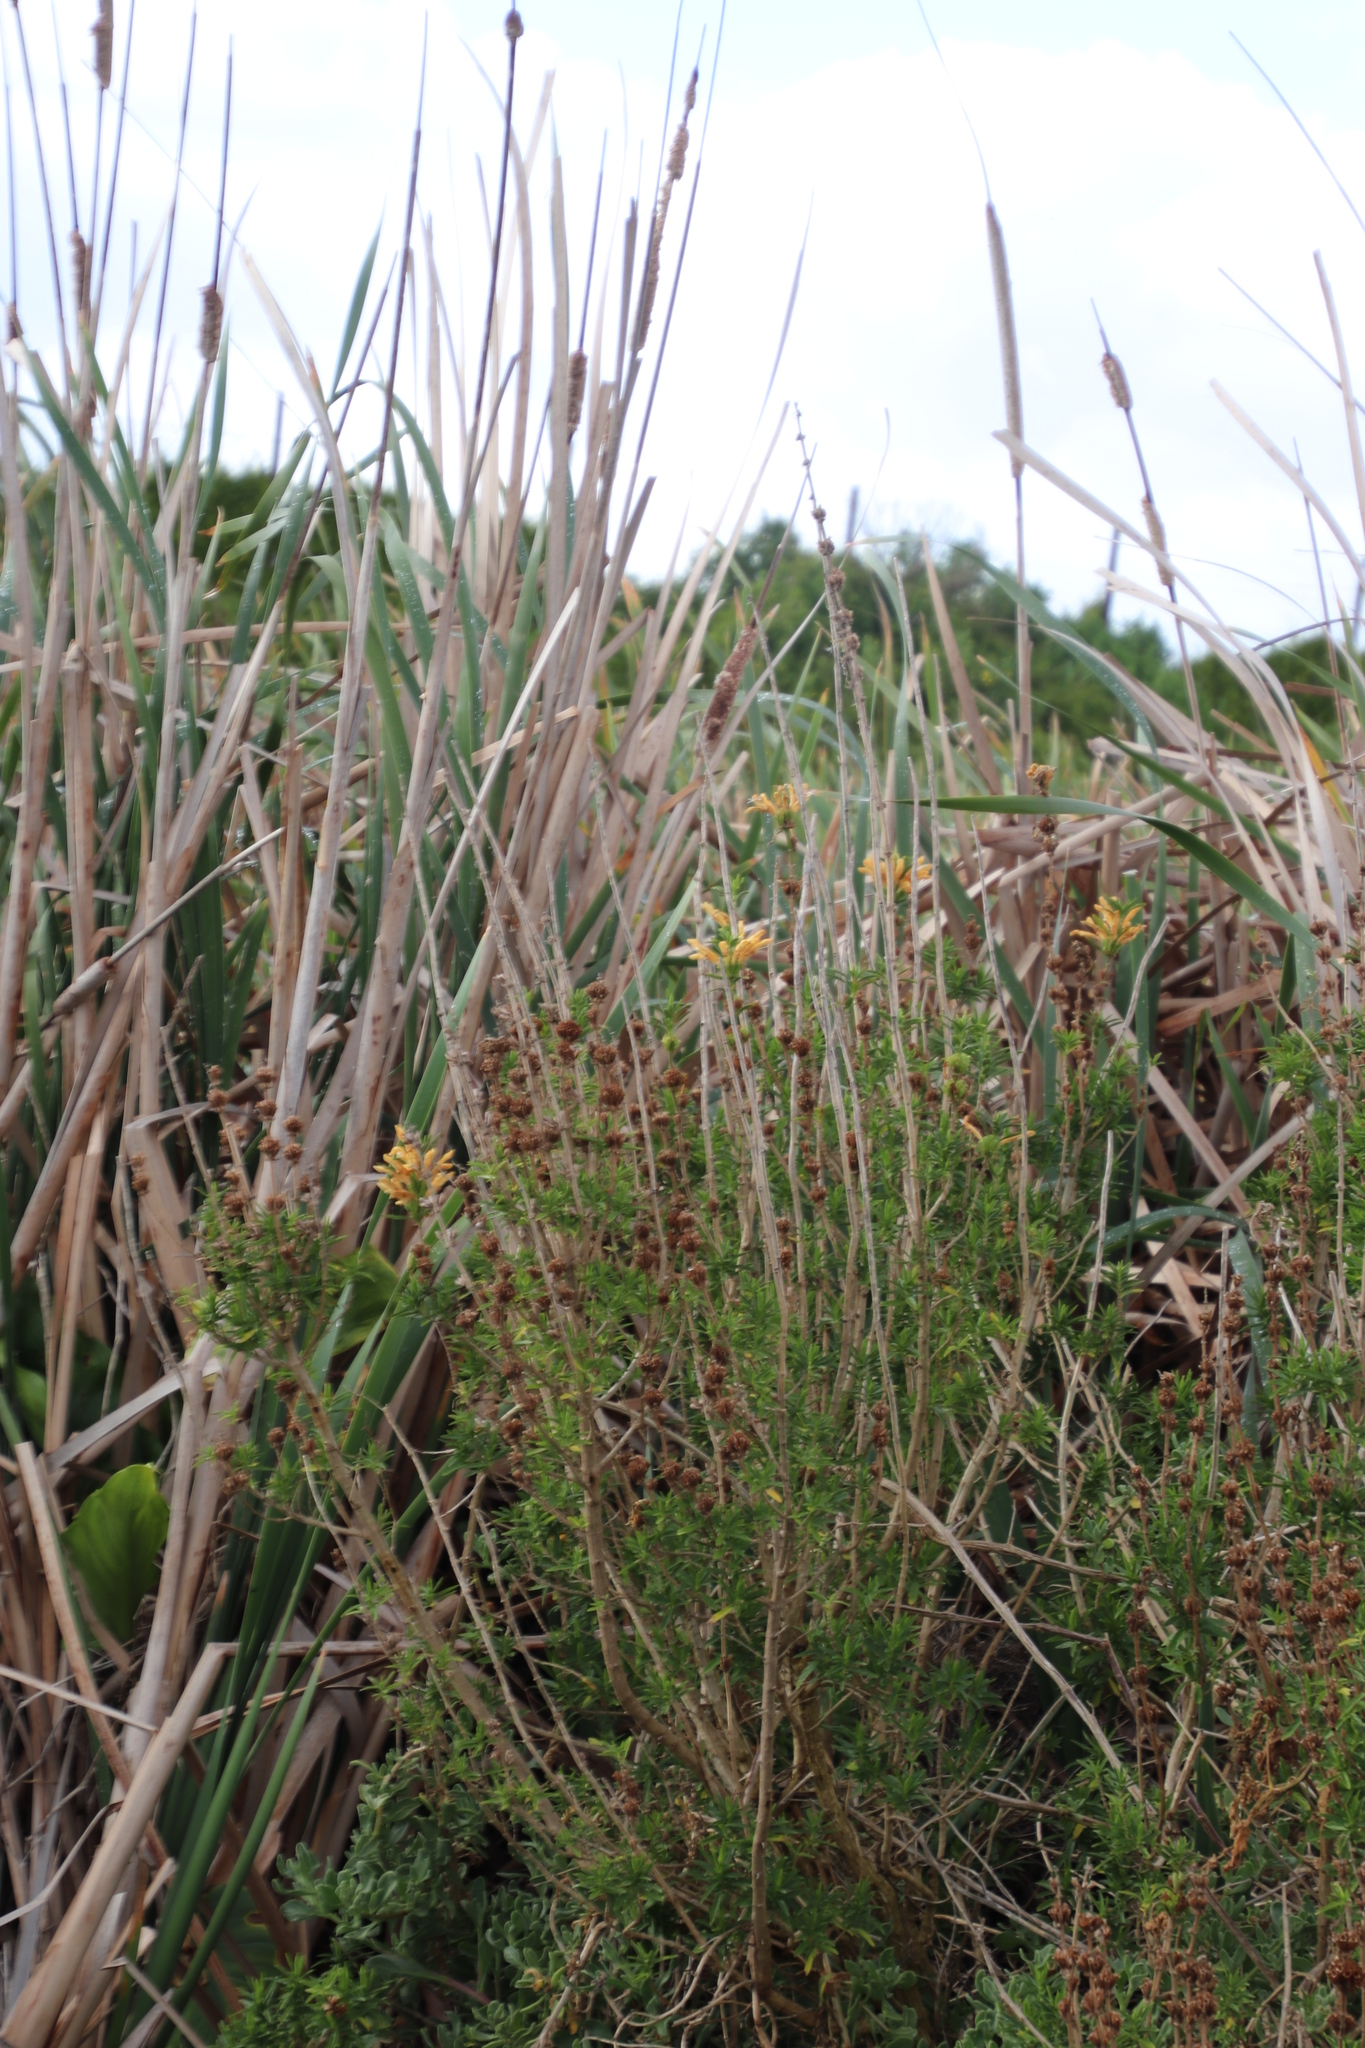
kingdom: Plantae
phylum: Tracheophyta
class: Magnoliopsida
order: Lamiales
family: Lamiaceae
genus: Leonotis
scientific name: Leonotis leonurus
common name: Lion's ear
